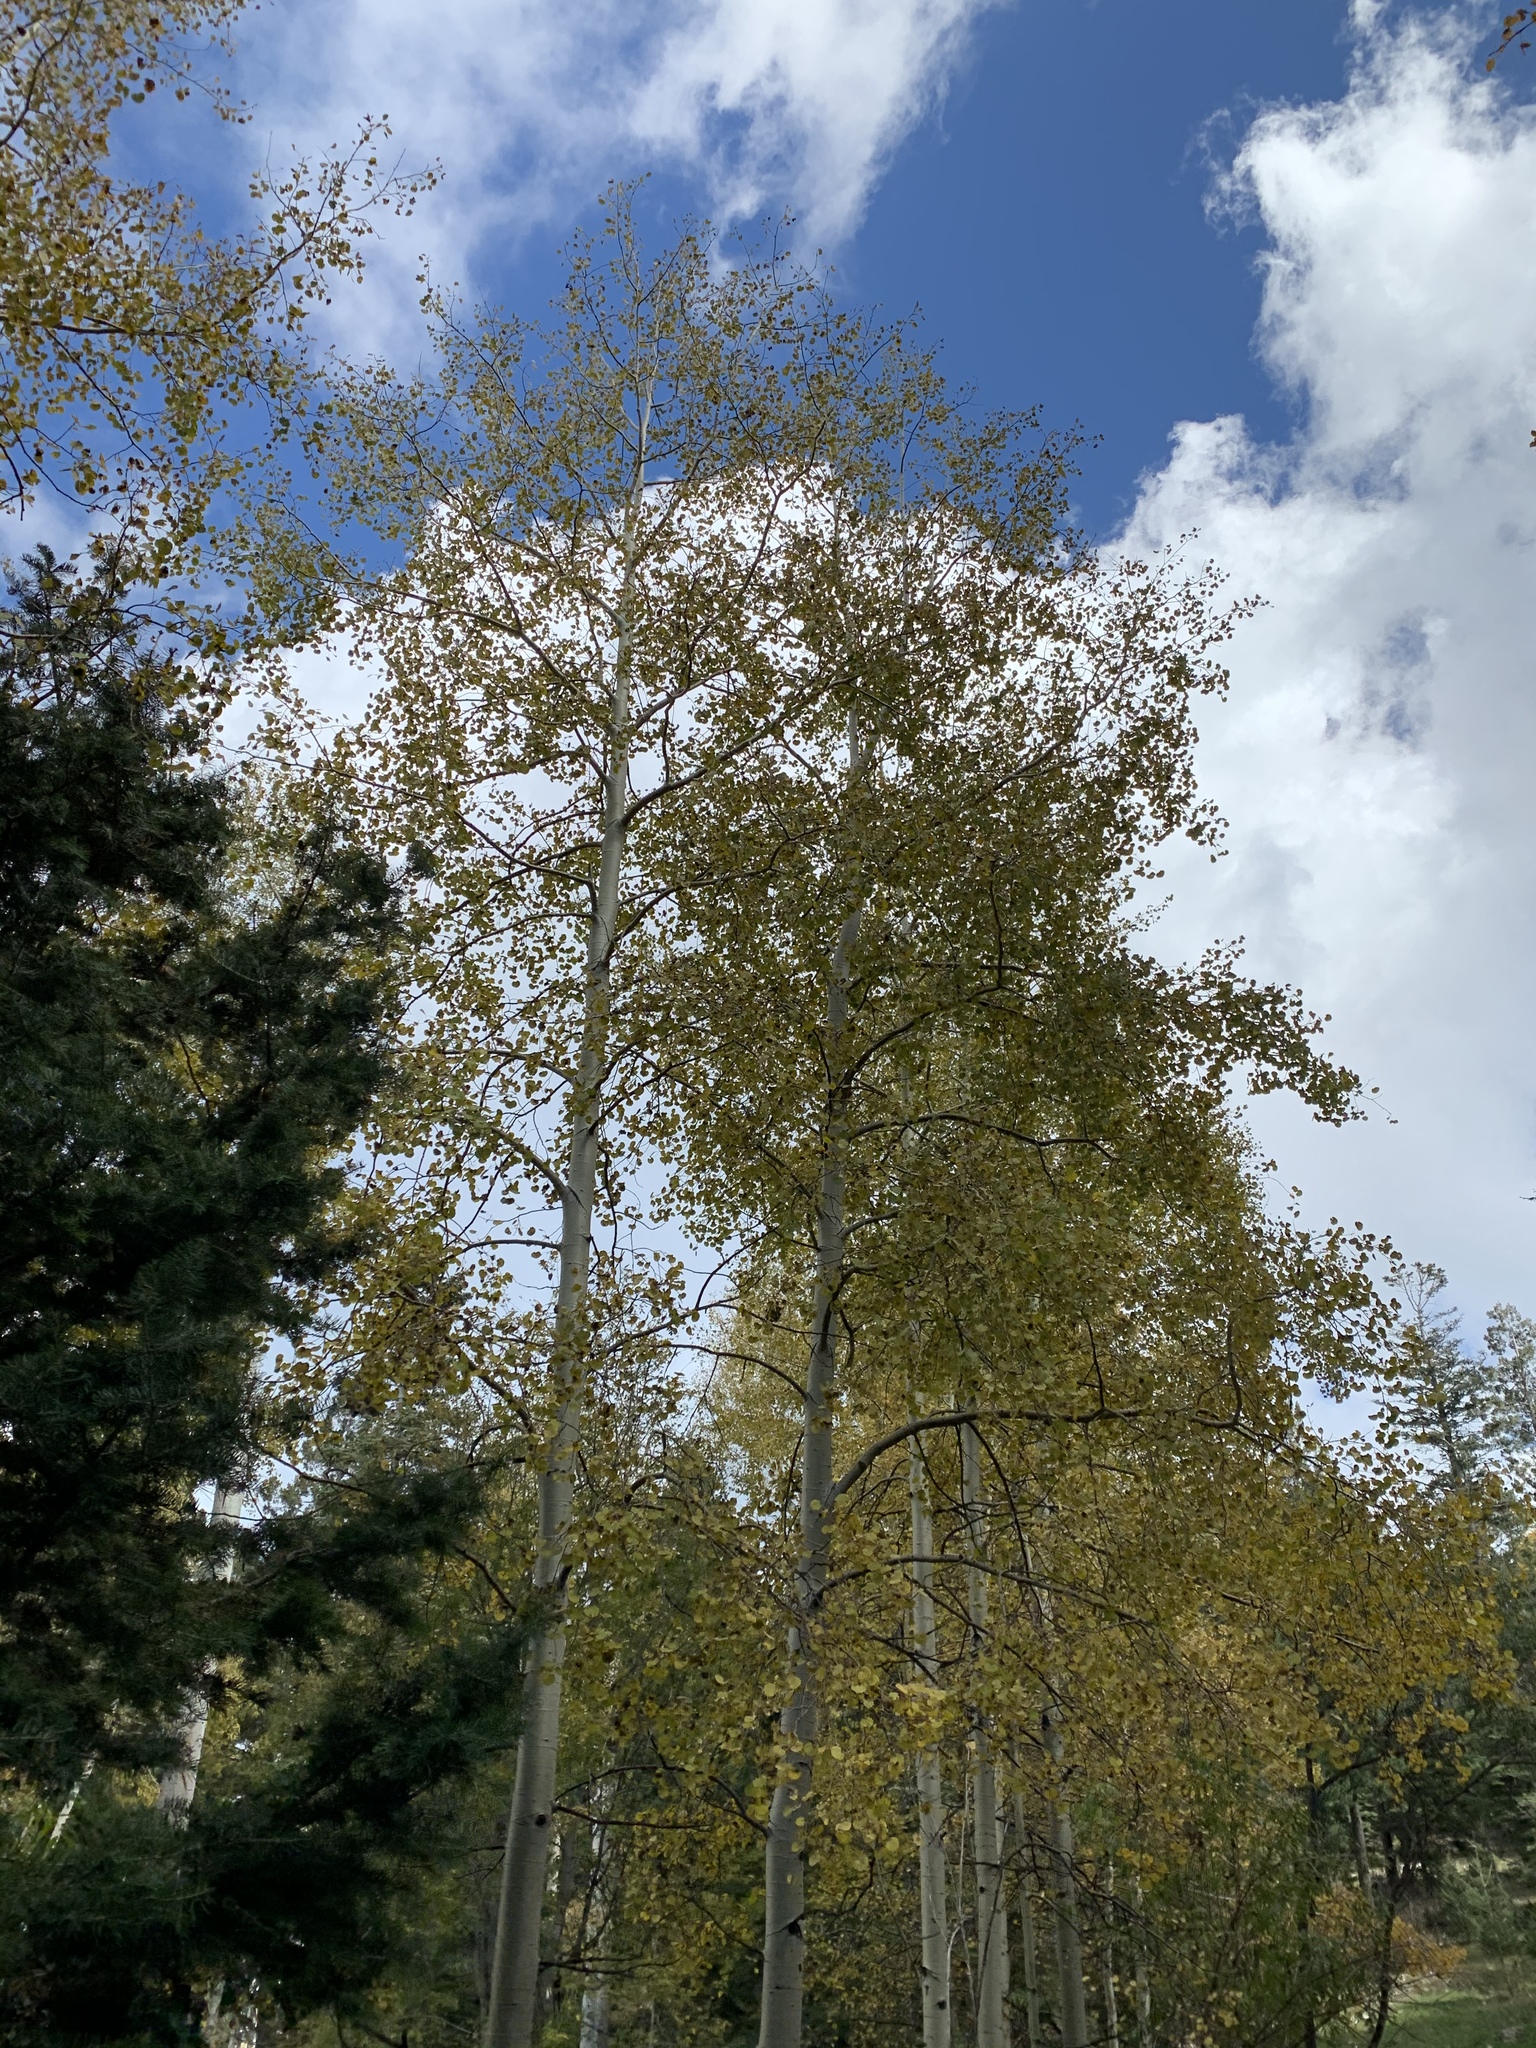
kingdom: Plantae
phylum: Tracheophyta
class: Magnoliopsida
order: Malpighiales
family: Salicaceae
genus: Populus
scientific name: Populus tremuloides
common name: Quaking aspen
